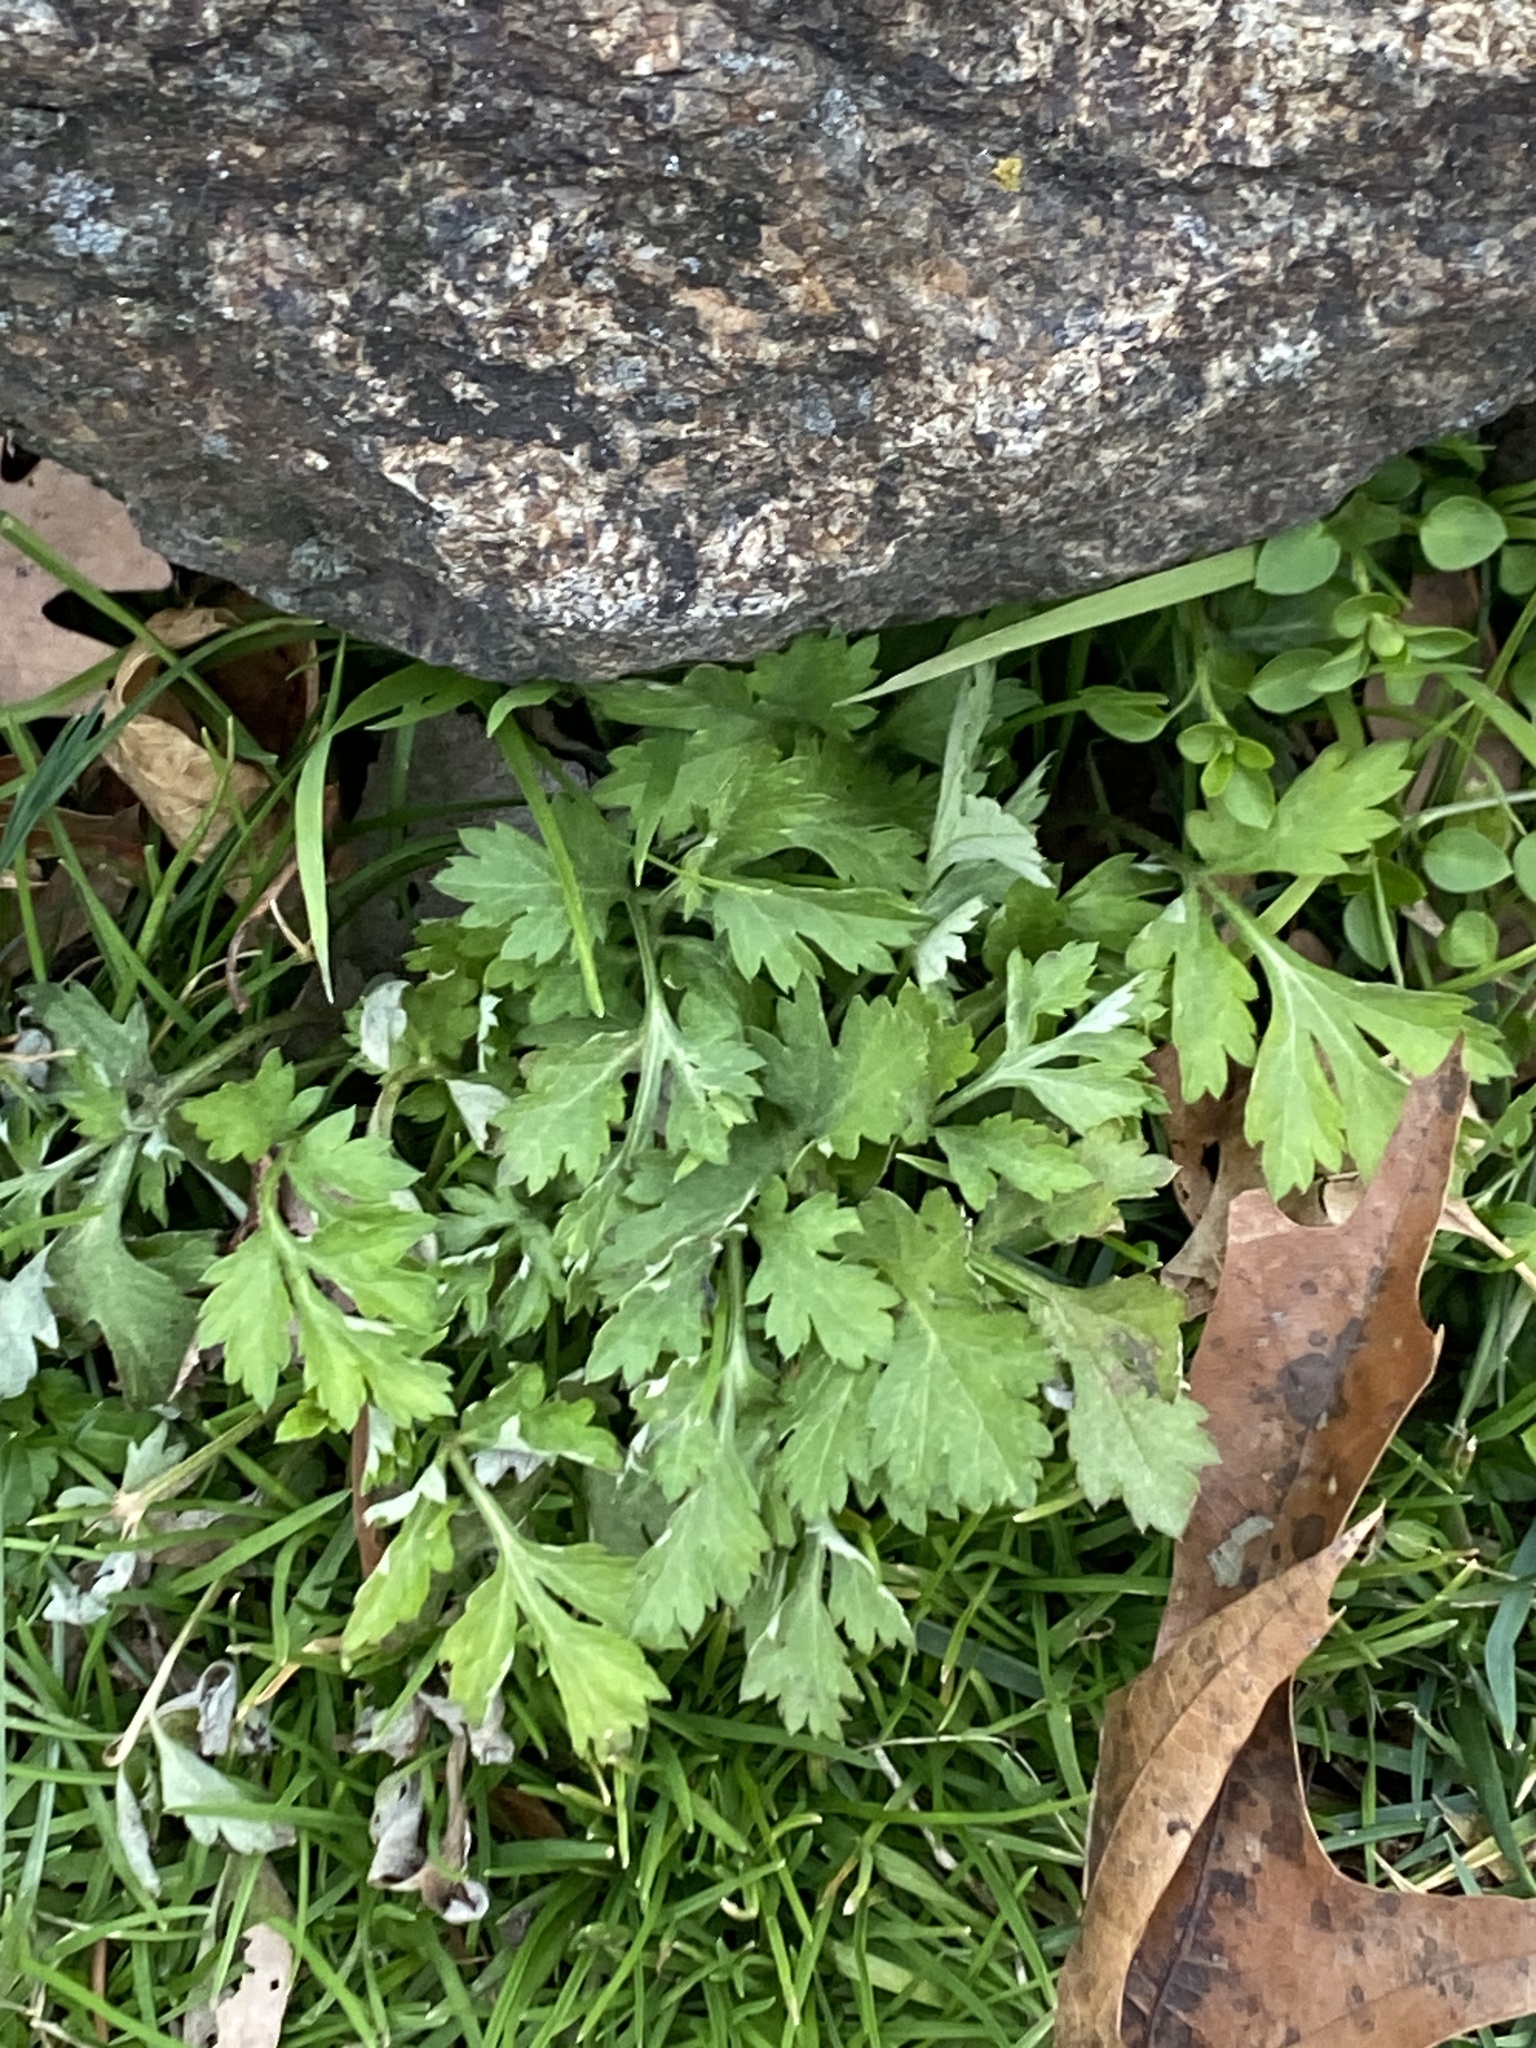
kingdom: Plantae
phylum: Tracheophyta
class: Magnoliopsida
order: Asterales
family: Asteraceae
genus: Artemisia
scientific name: Artemisia vulgaris
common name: Mugwort
